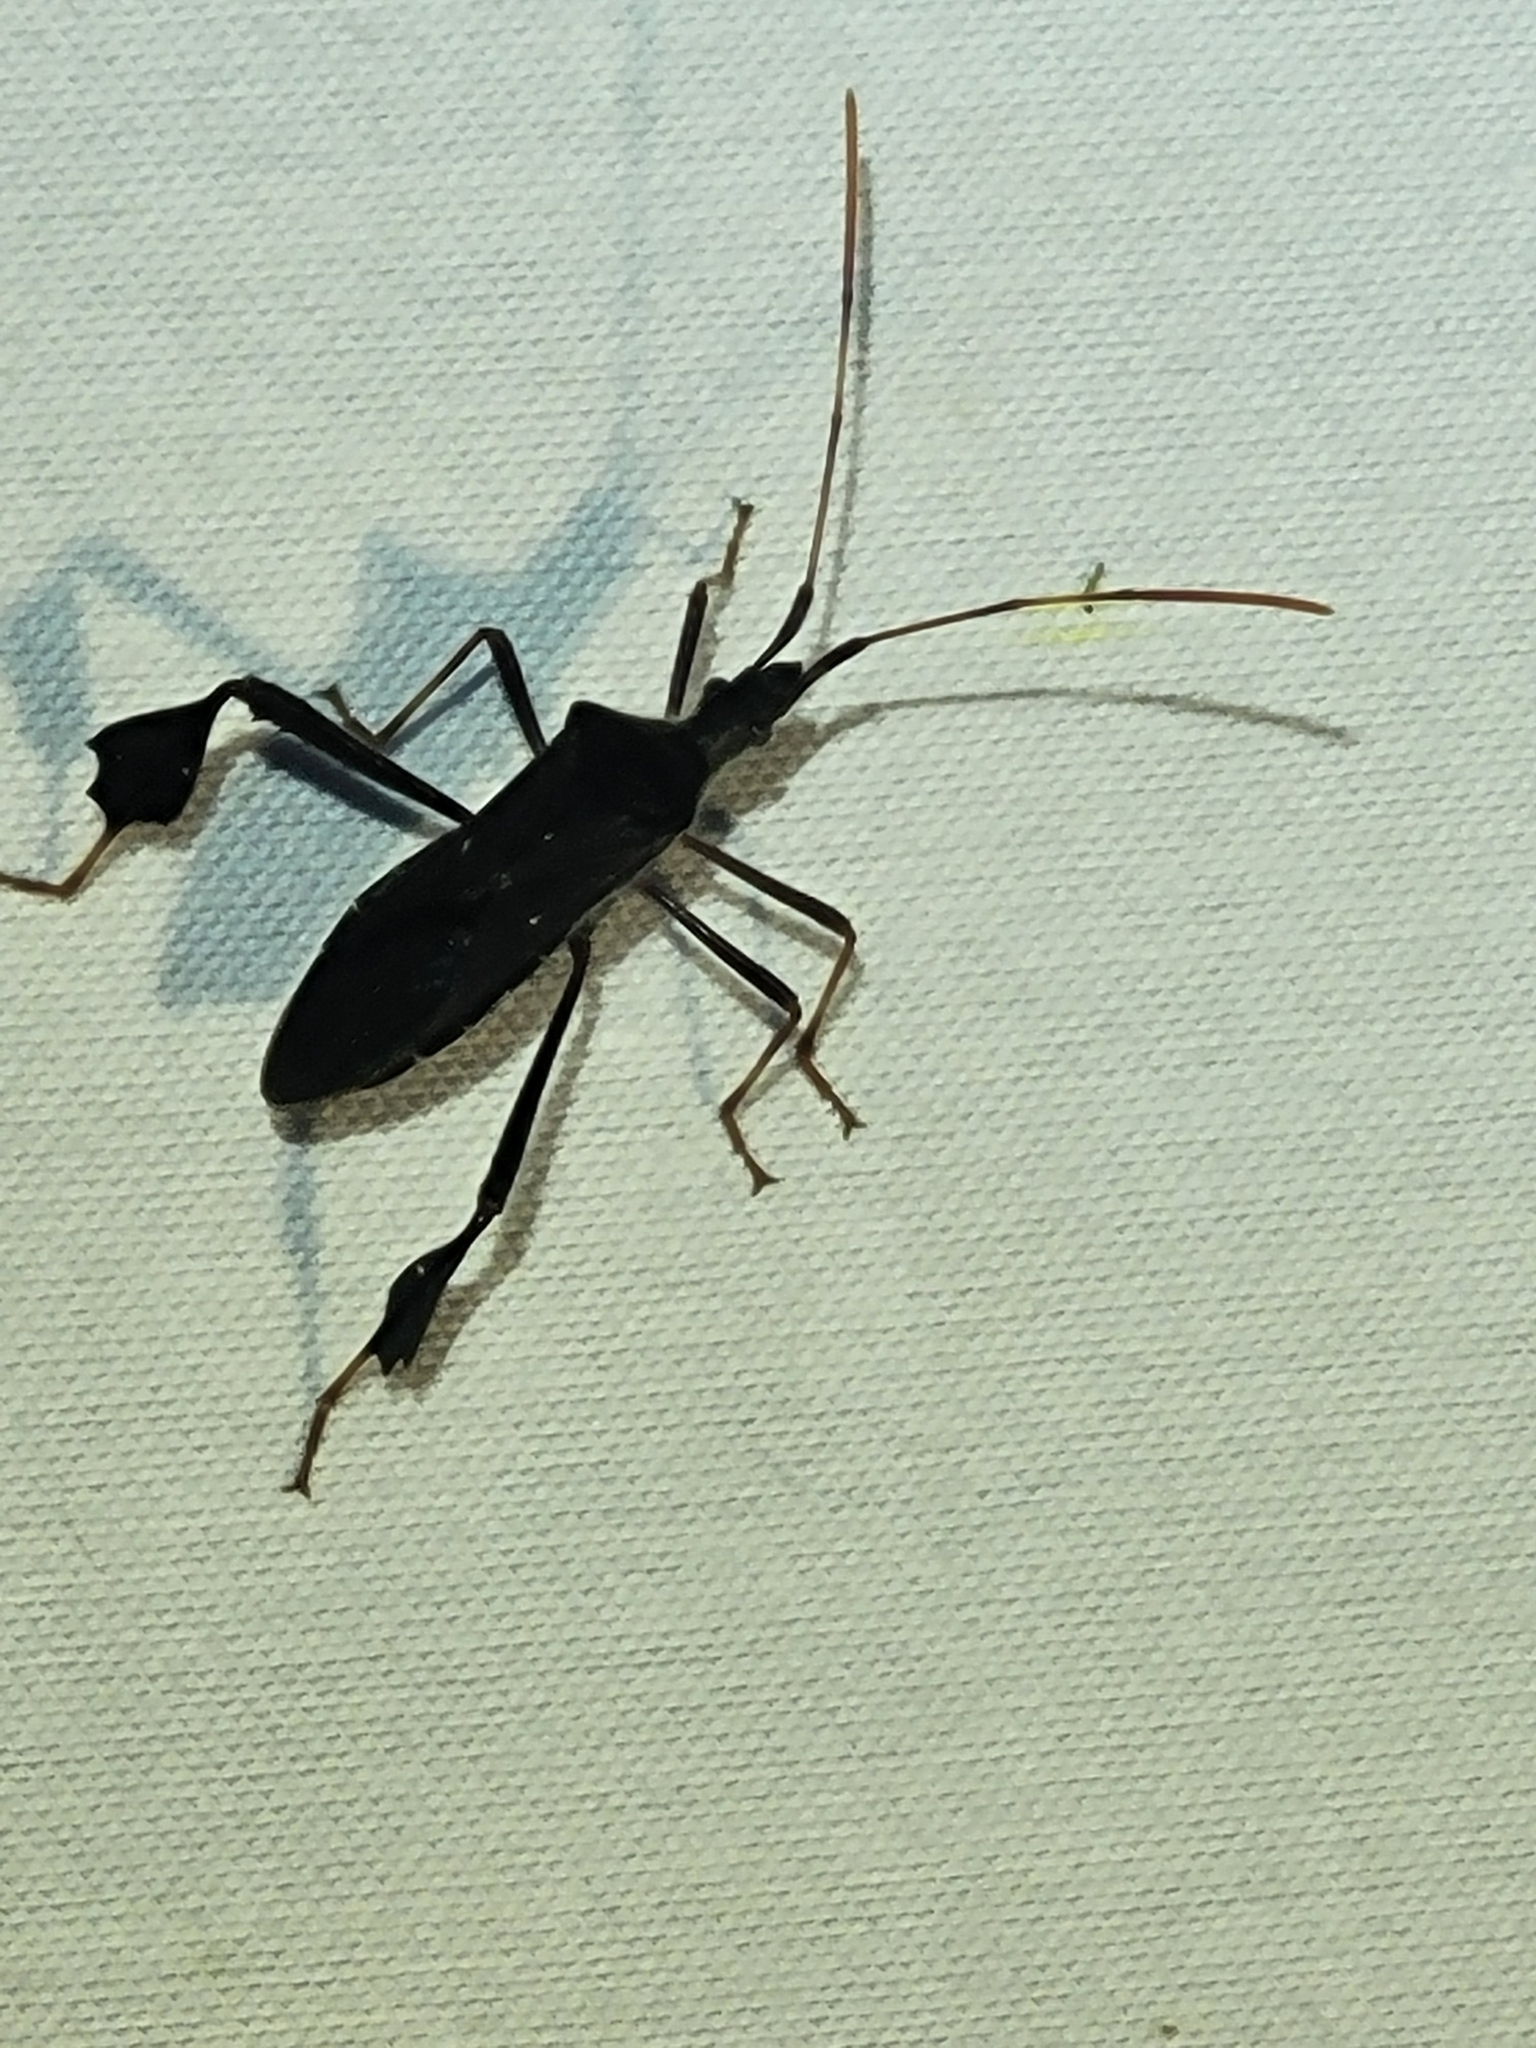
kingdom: Animalia
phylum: Arthropoda
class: Insecta
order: Hemiptera
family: Coreidae
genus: Leptoglossus
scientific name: Leptoglossus oppositus
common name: Northern leaf-footed bug
